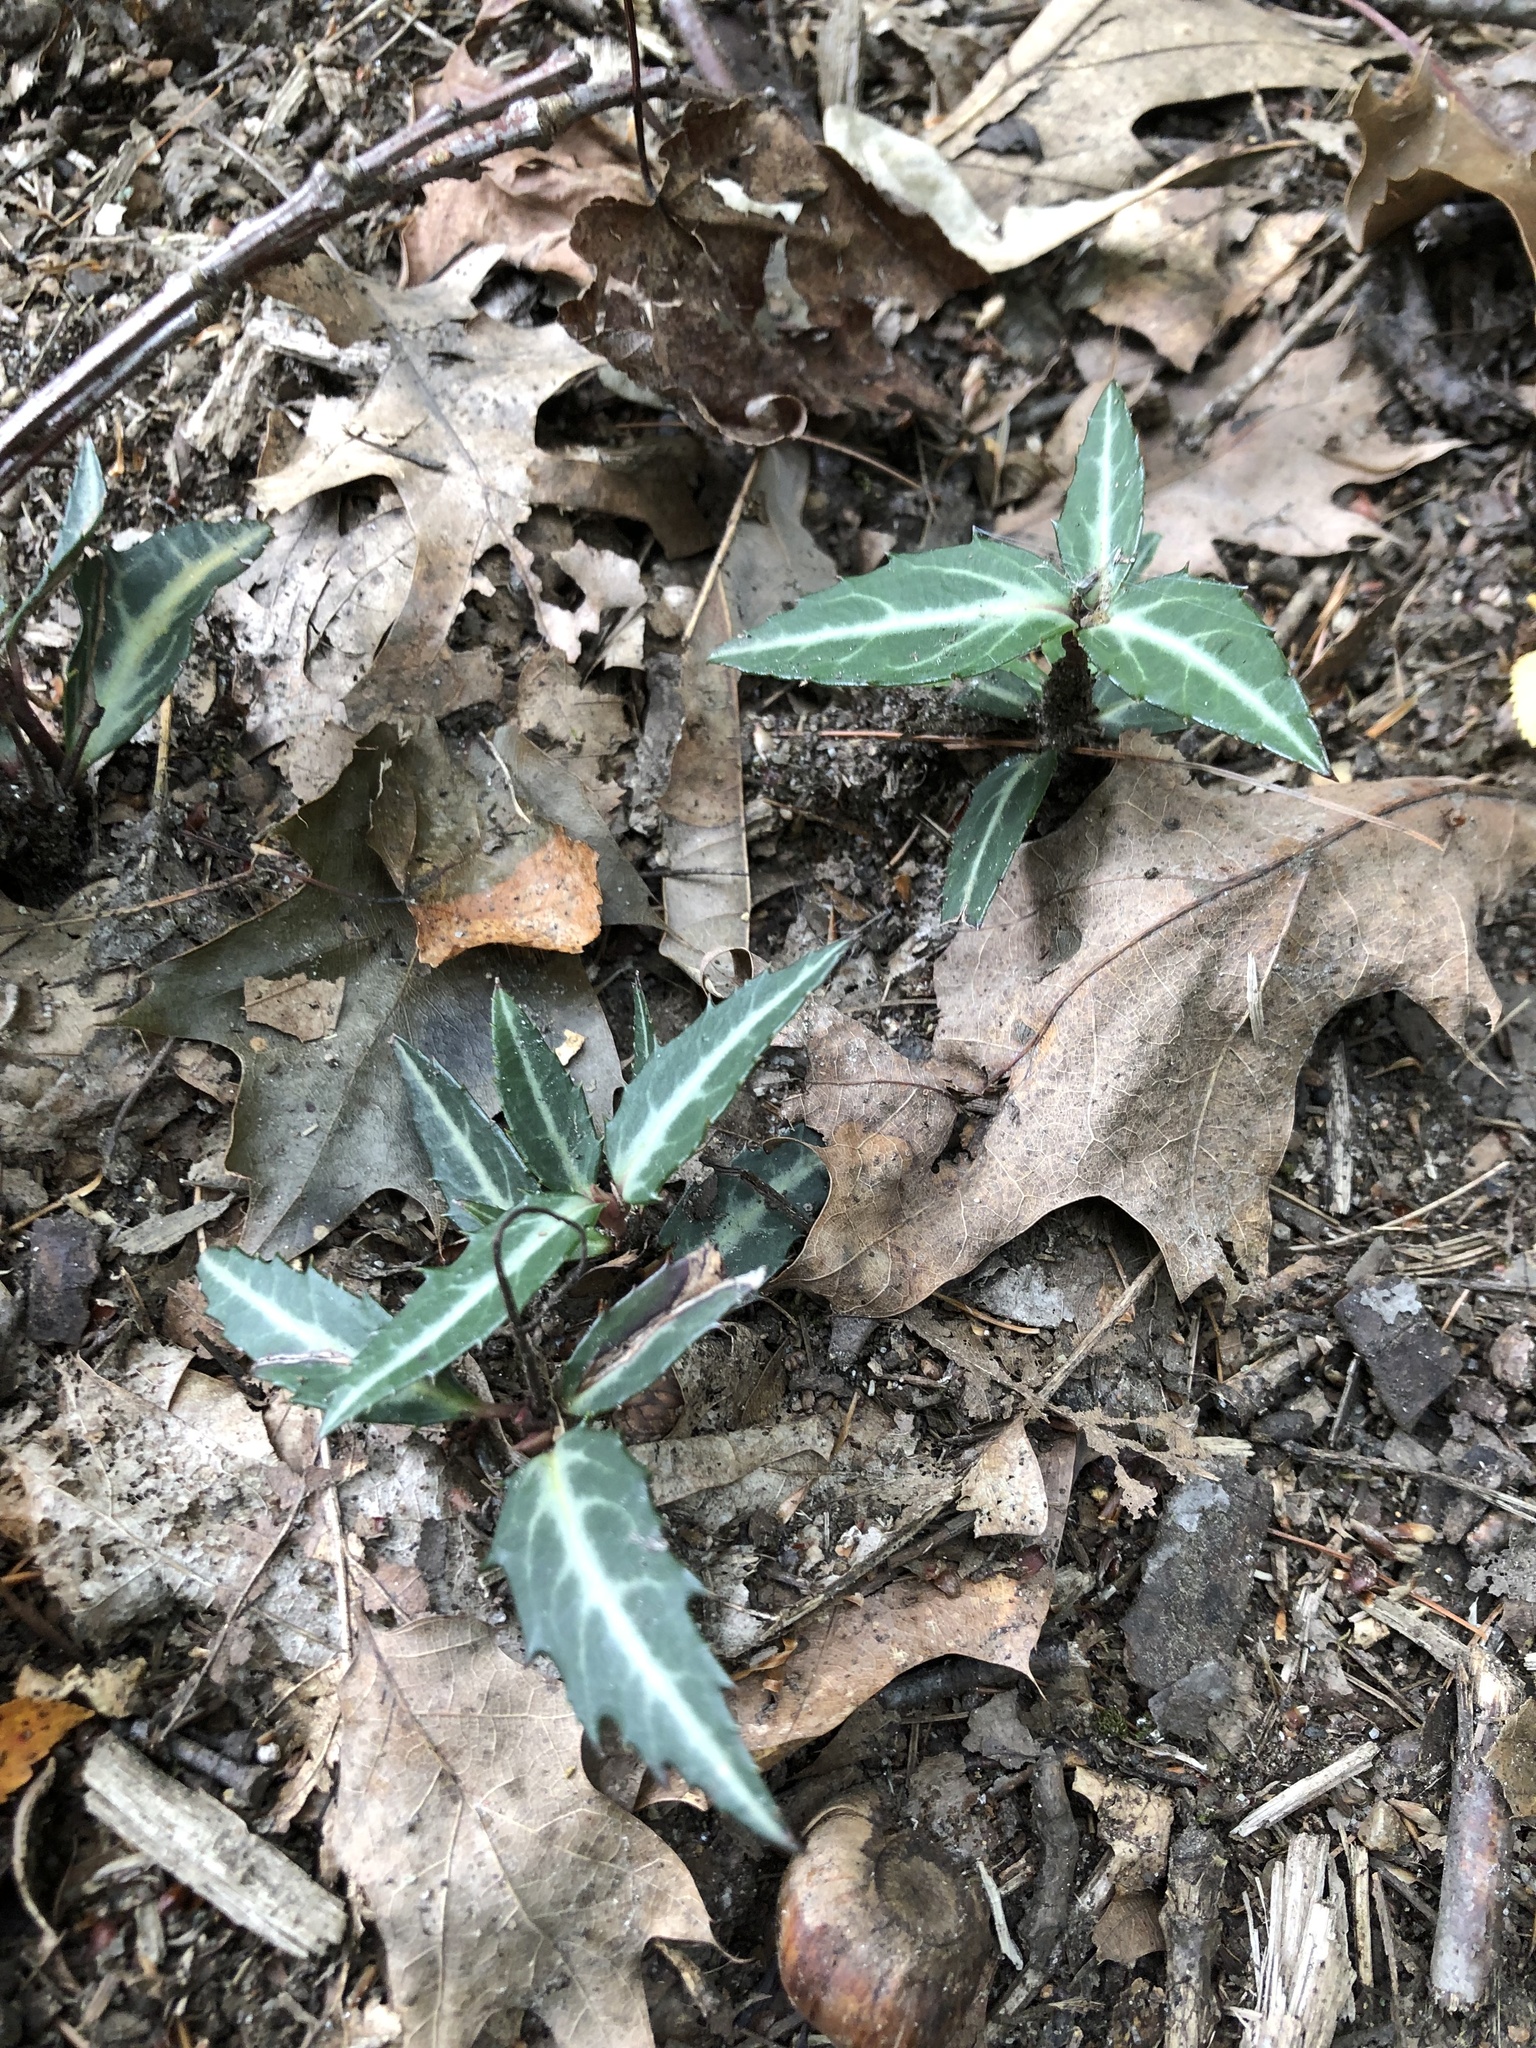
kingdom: Plantae
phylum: Tracheophyta
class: Magnoliopsida
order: Ericales
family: Ericaceae
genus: Chimaphila
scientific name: Chimaphila maculata
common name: Spotted pipsissewa
